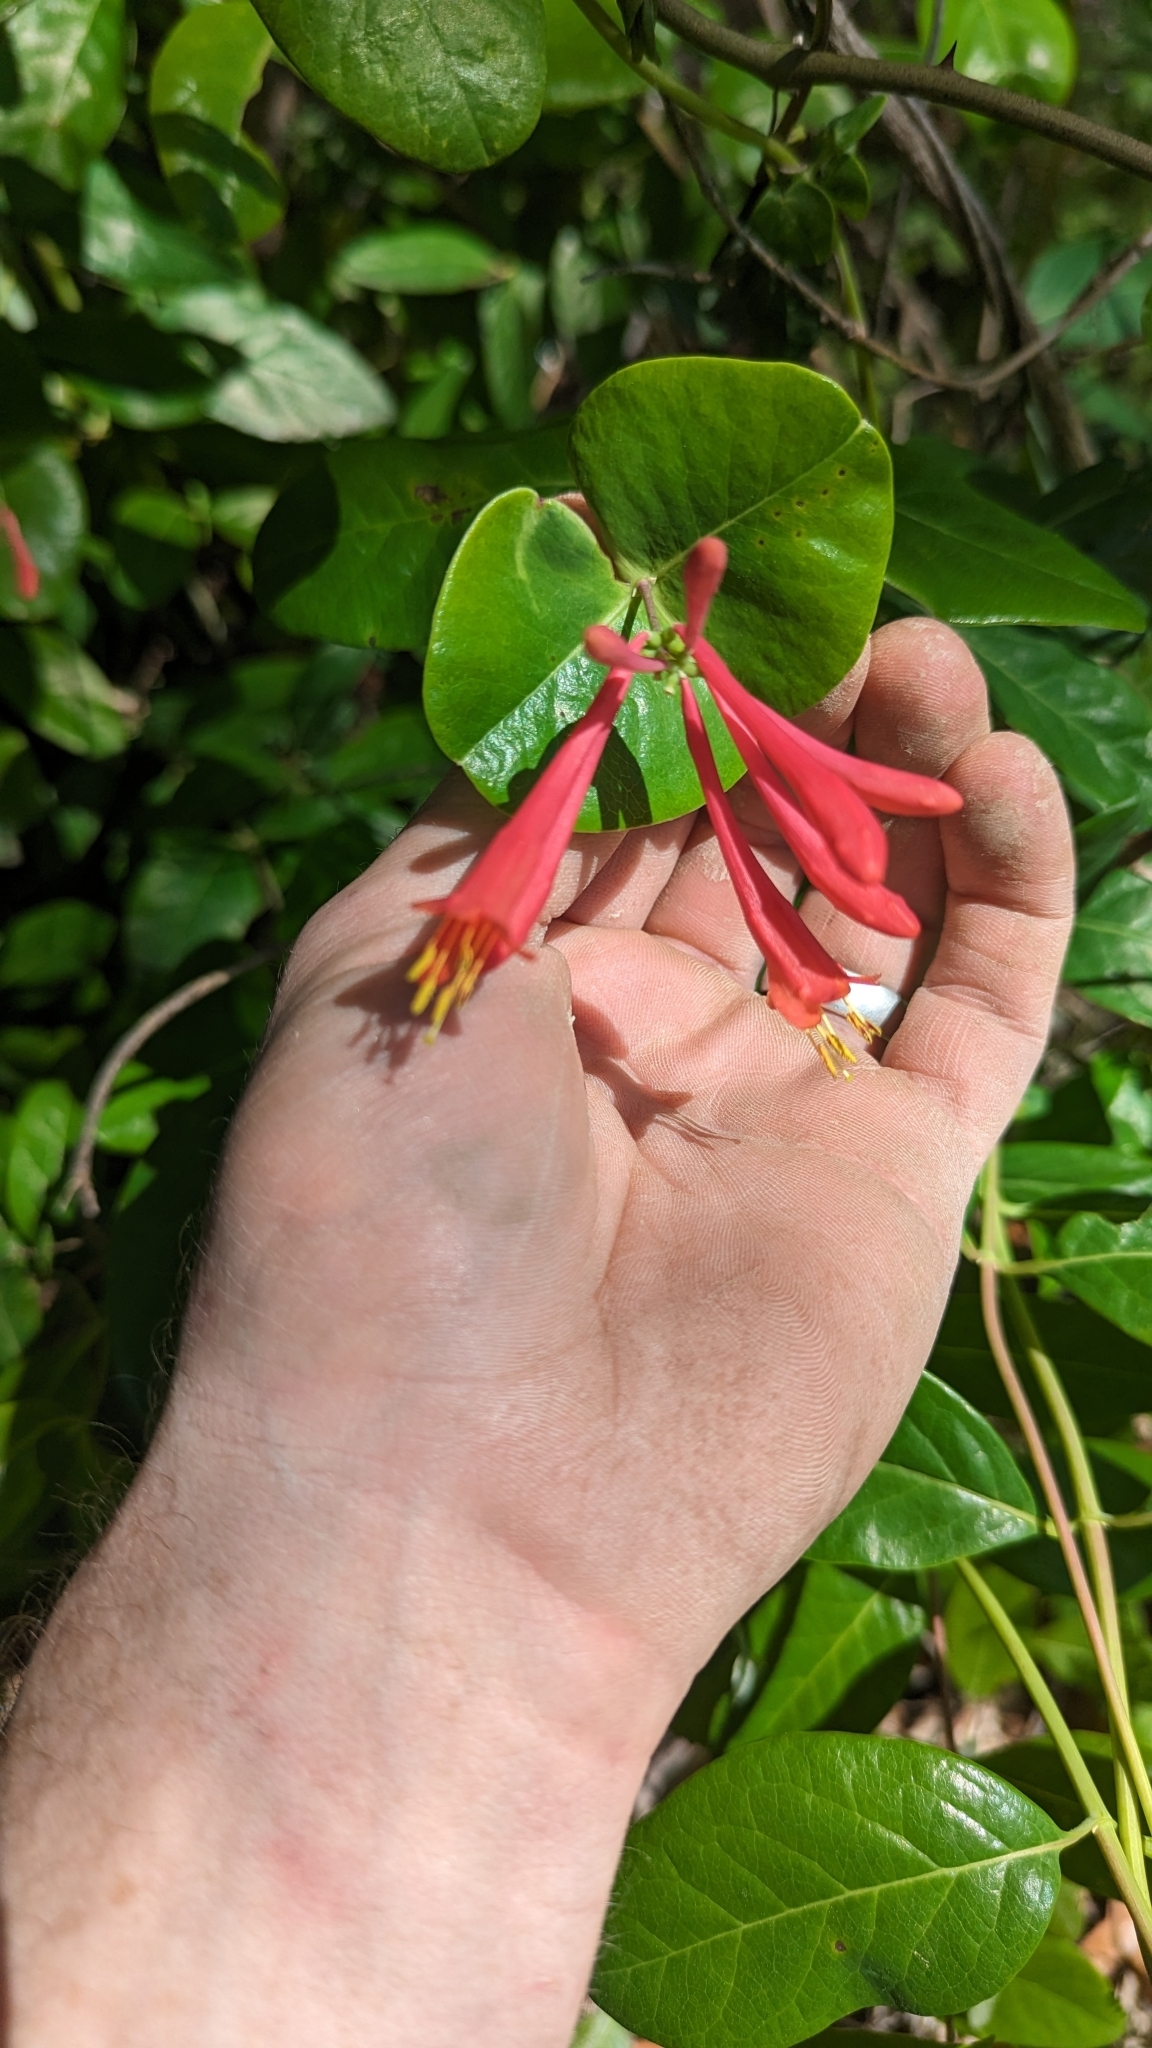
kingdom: Plantae
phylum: Tracheophyta
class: Magnoliopsida
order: Dipsacales
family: Caprifoliaceae
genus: Lonicera
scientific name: Lonicera sempervirens
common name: Coral honeysuckle
